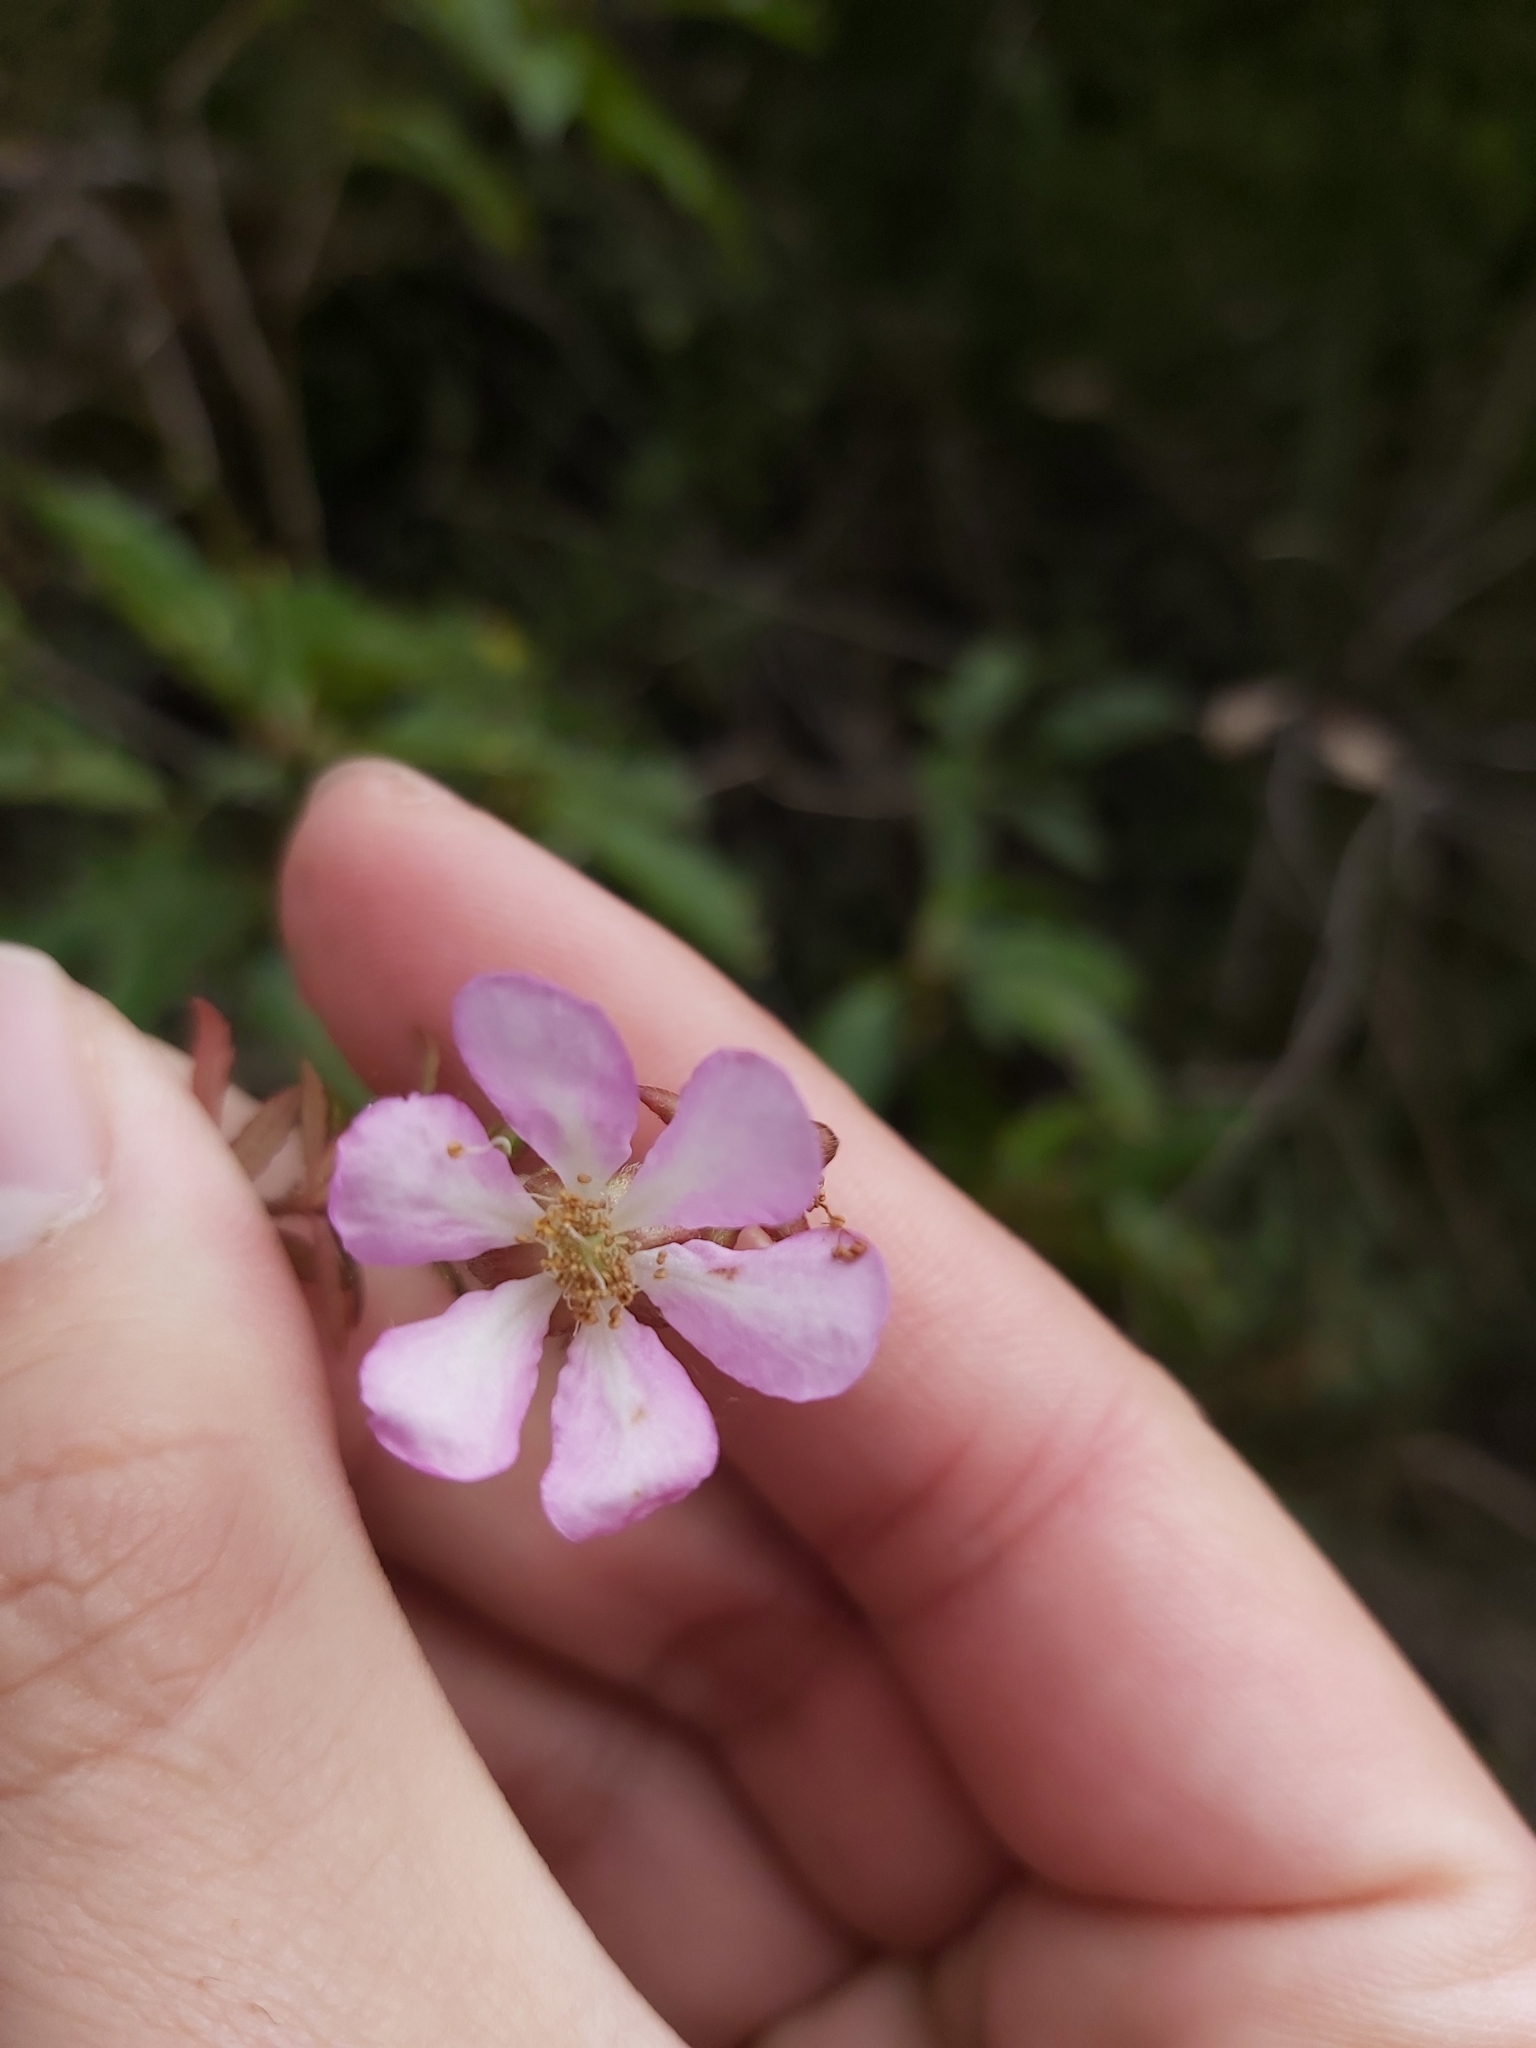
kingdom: Plantae
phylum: Tracheophyta
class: Magnoliopsida
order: Oxalidales
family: Cunoniaceae
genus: Bauera
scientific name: Bauera rubioides
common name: River-rose
